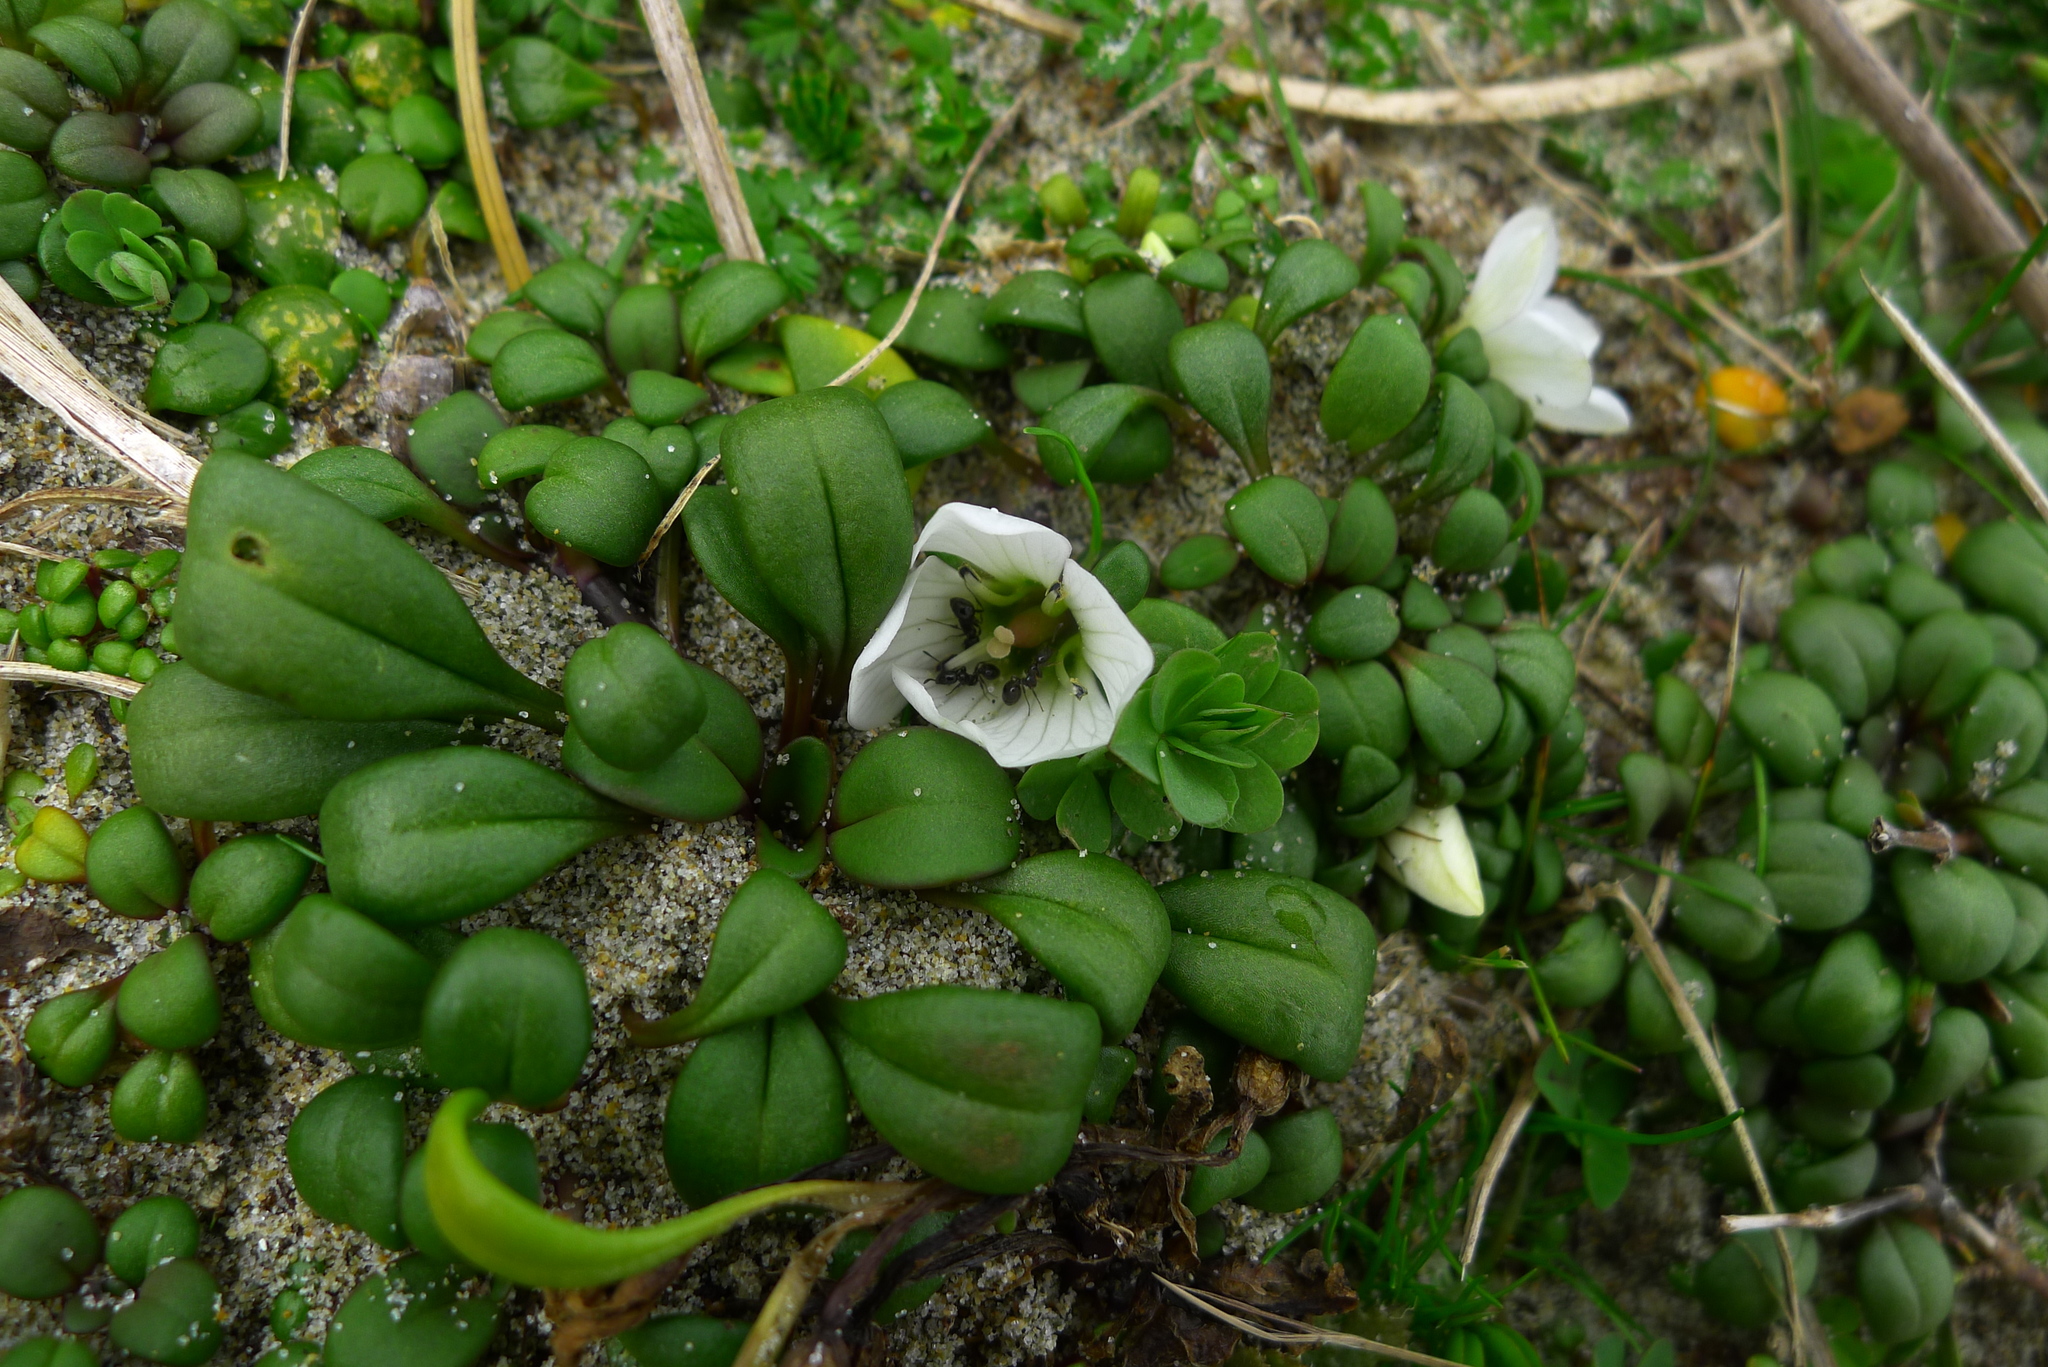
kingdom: Plantae
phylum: Tracheophyta
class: Magnoliopsida
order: Gentianales
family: Gentianaceae
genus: Gentianella
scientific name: Gentianella saxosa
